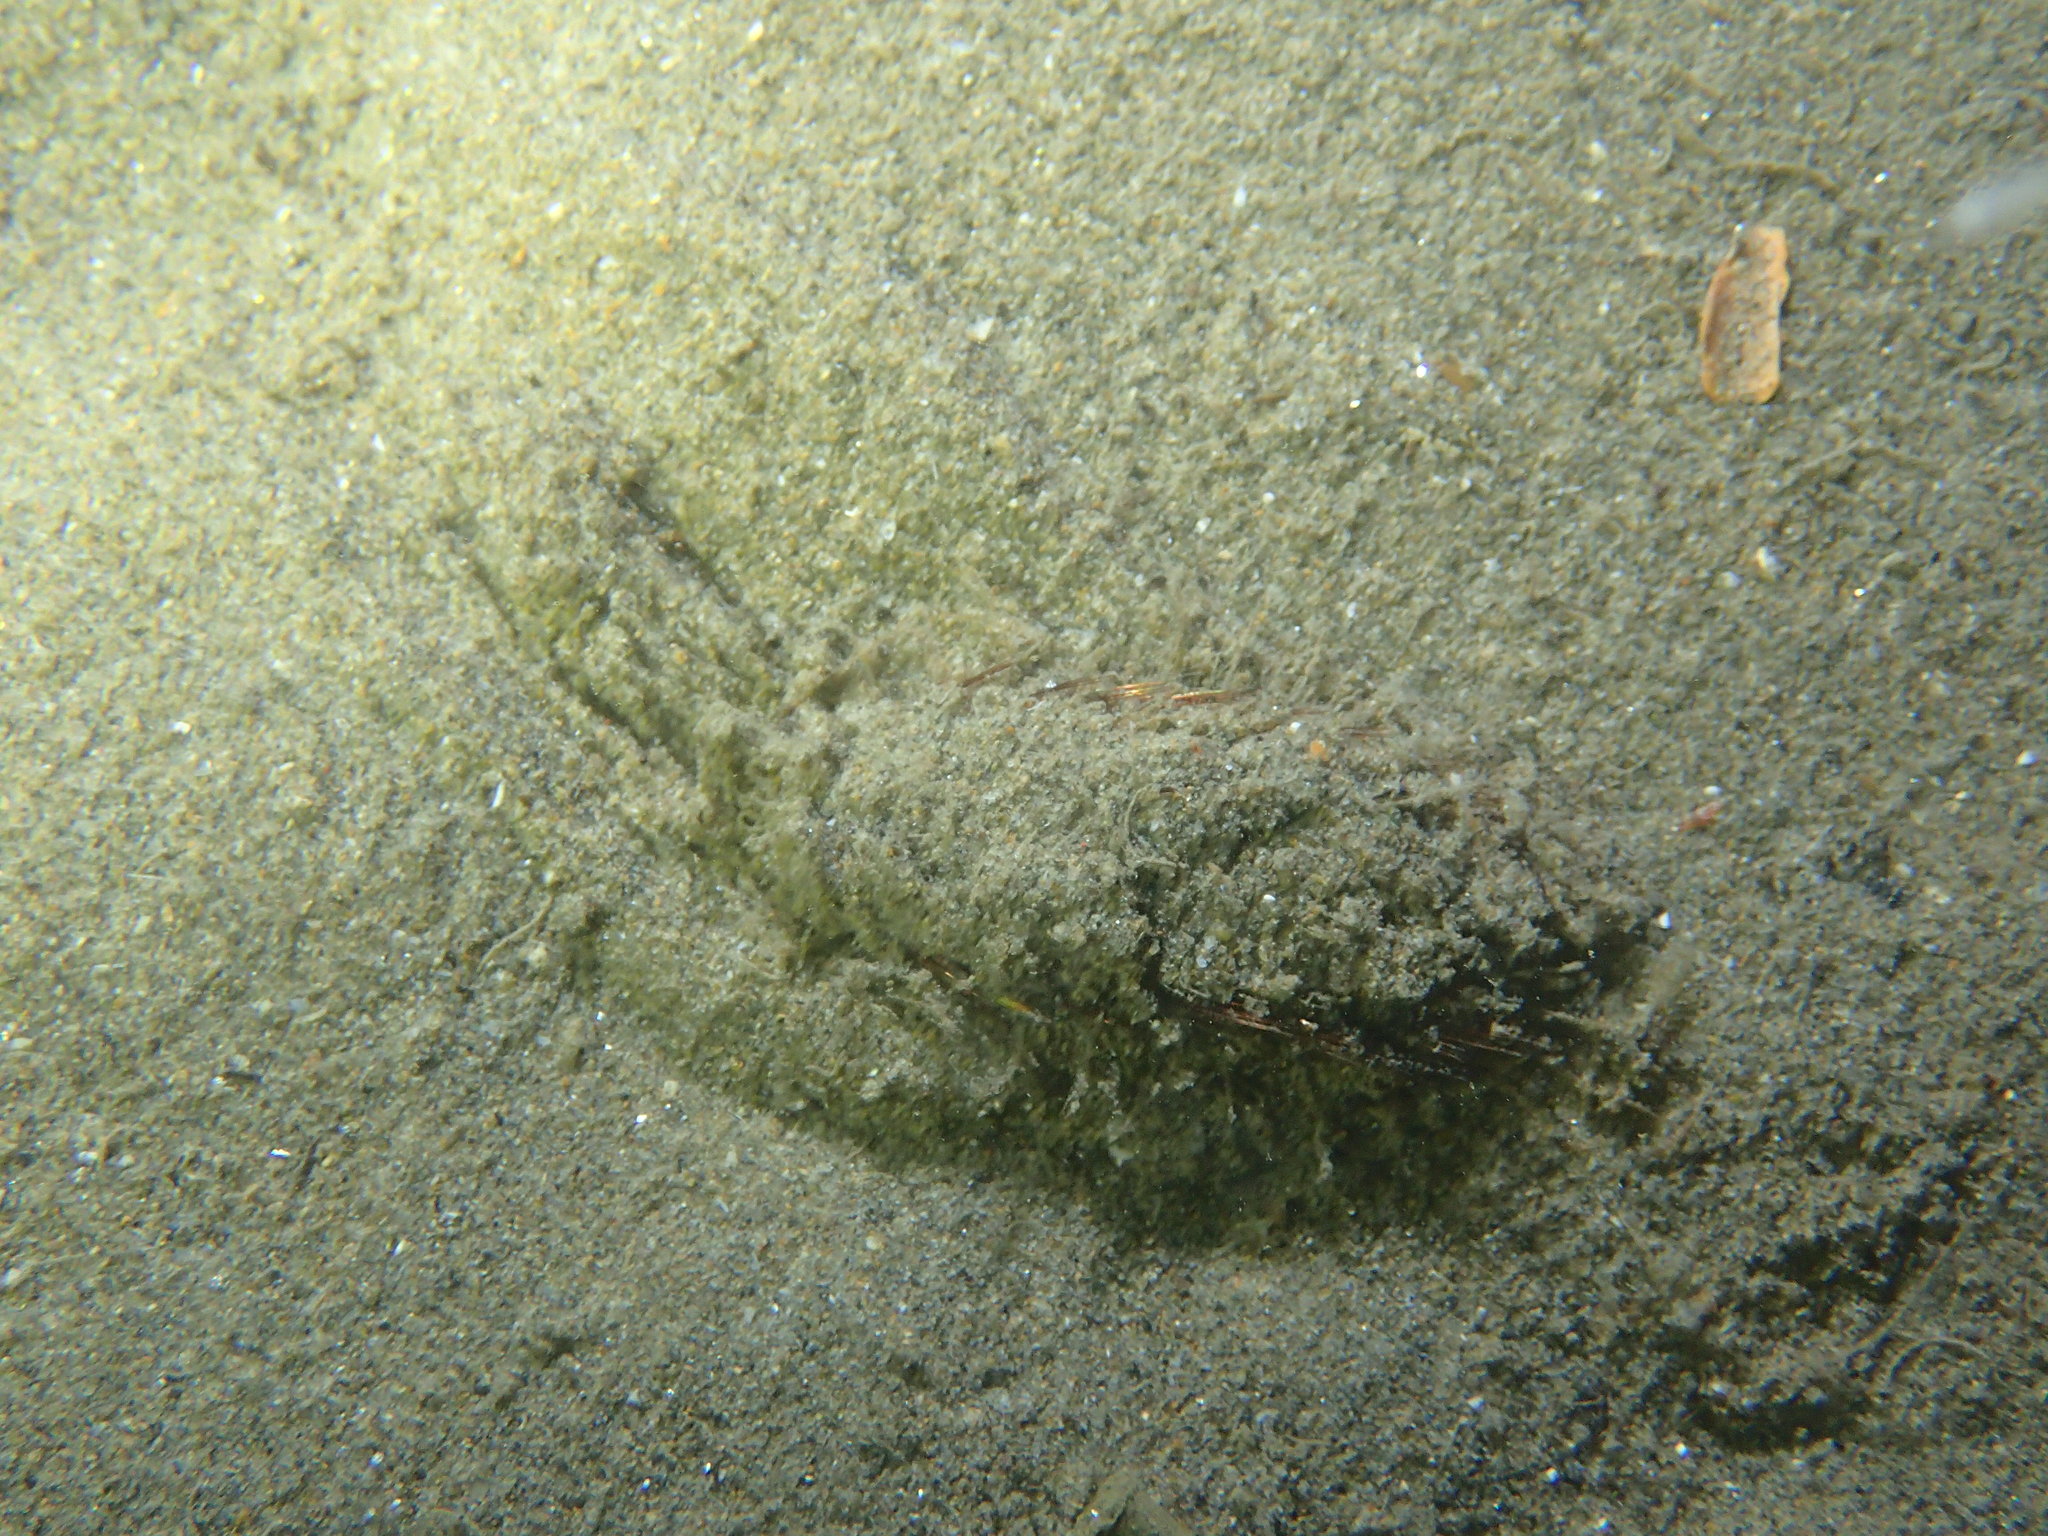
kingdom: Animalia
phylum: Annelida
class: Polychaeta
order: Phyllodocida
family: Aphroditidae
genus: Aphrodita
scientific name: Aphrodita aculeata
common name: Sea mouse
